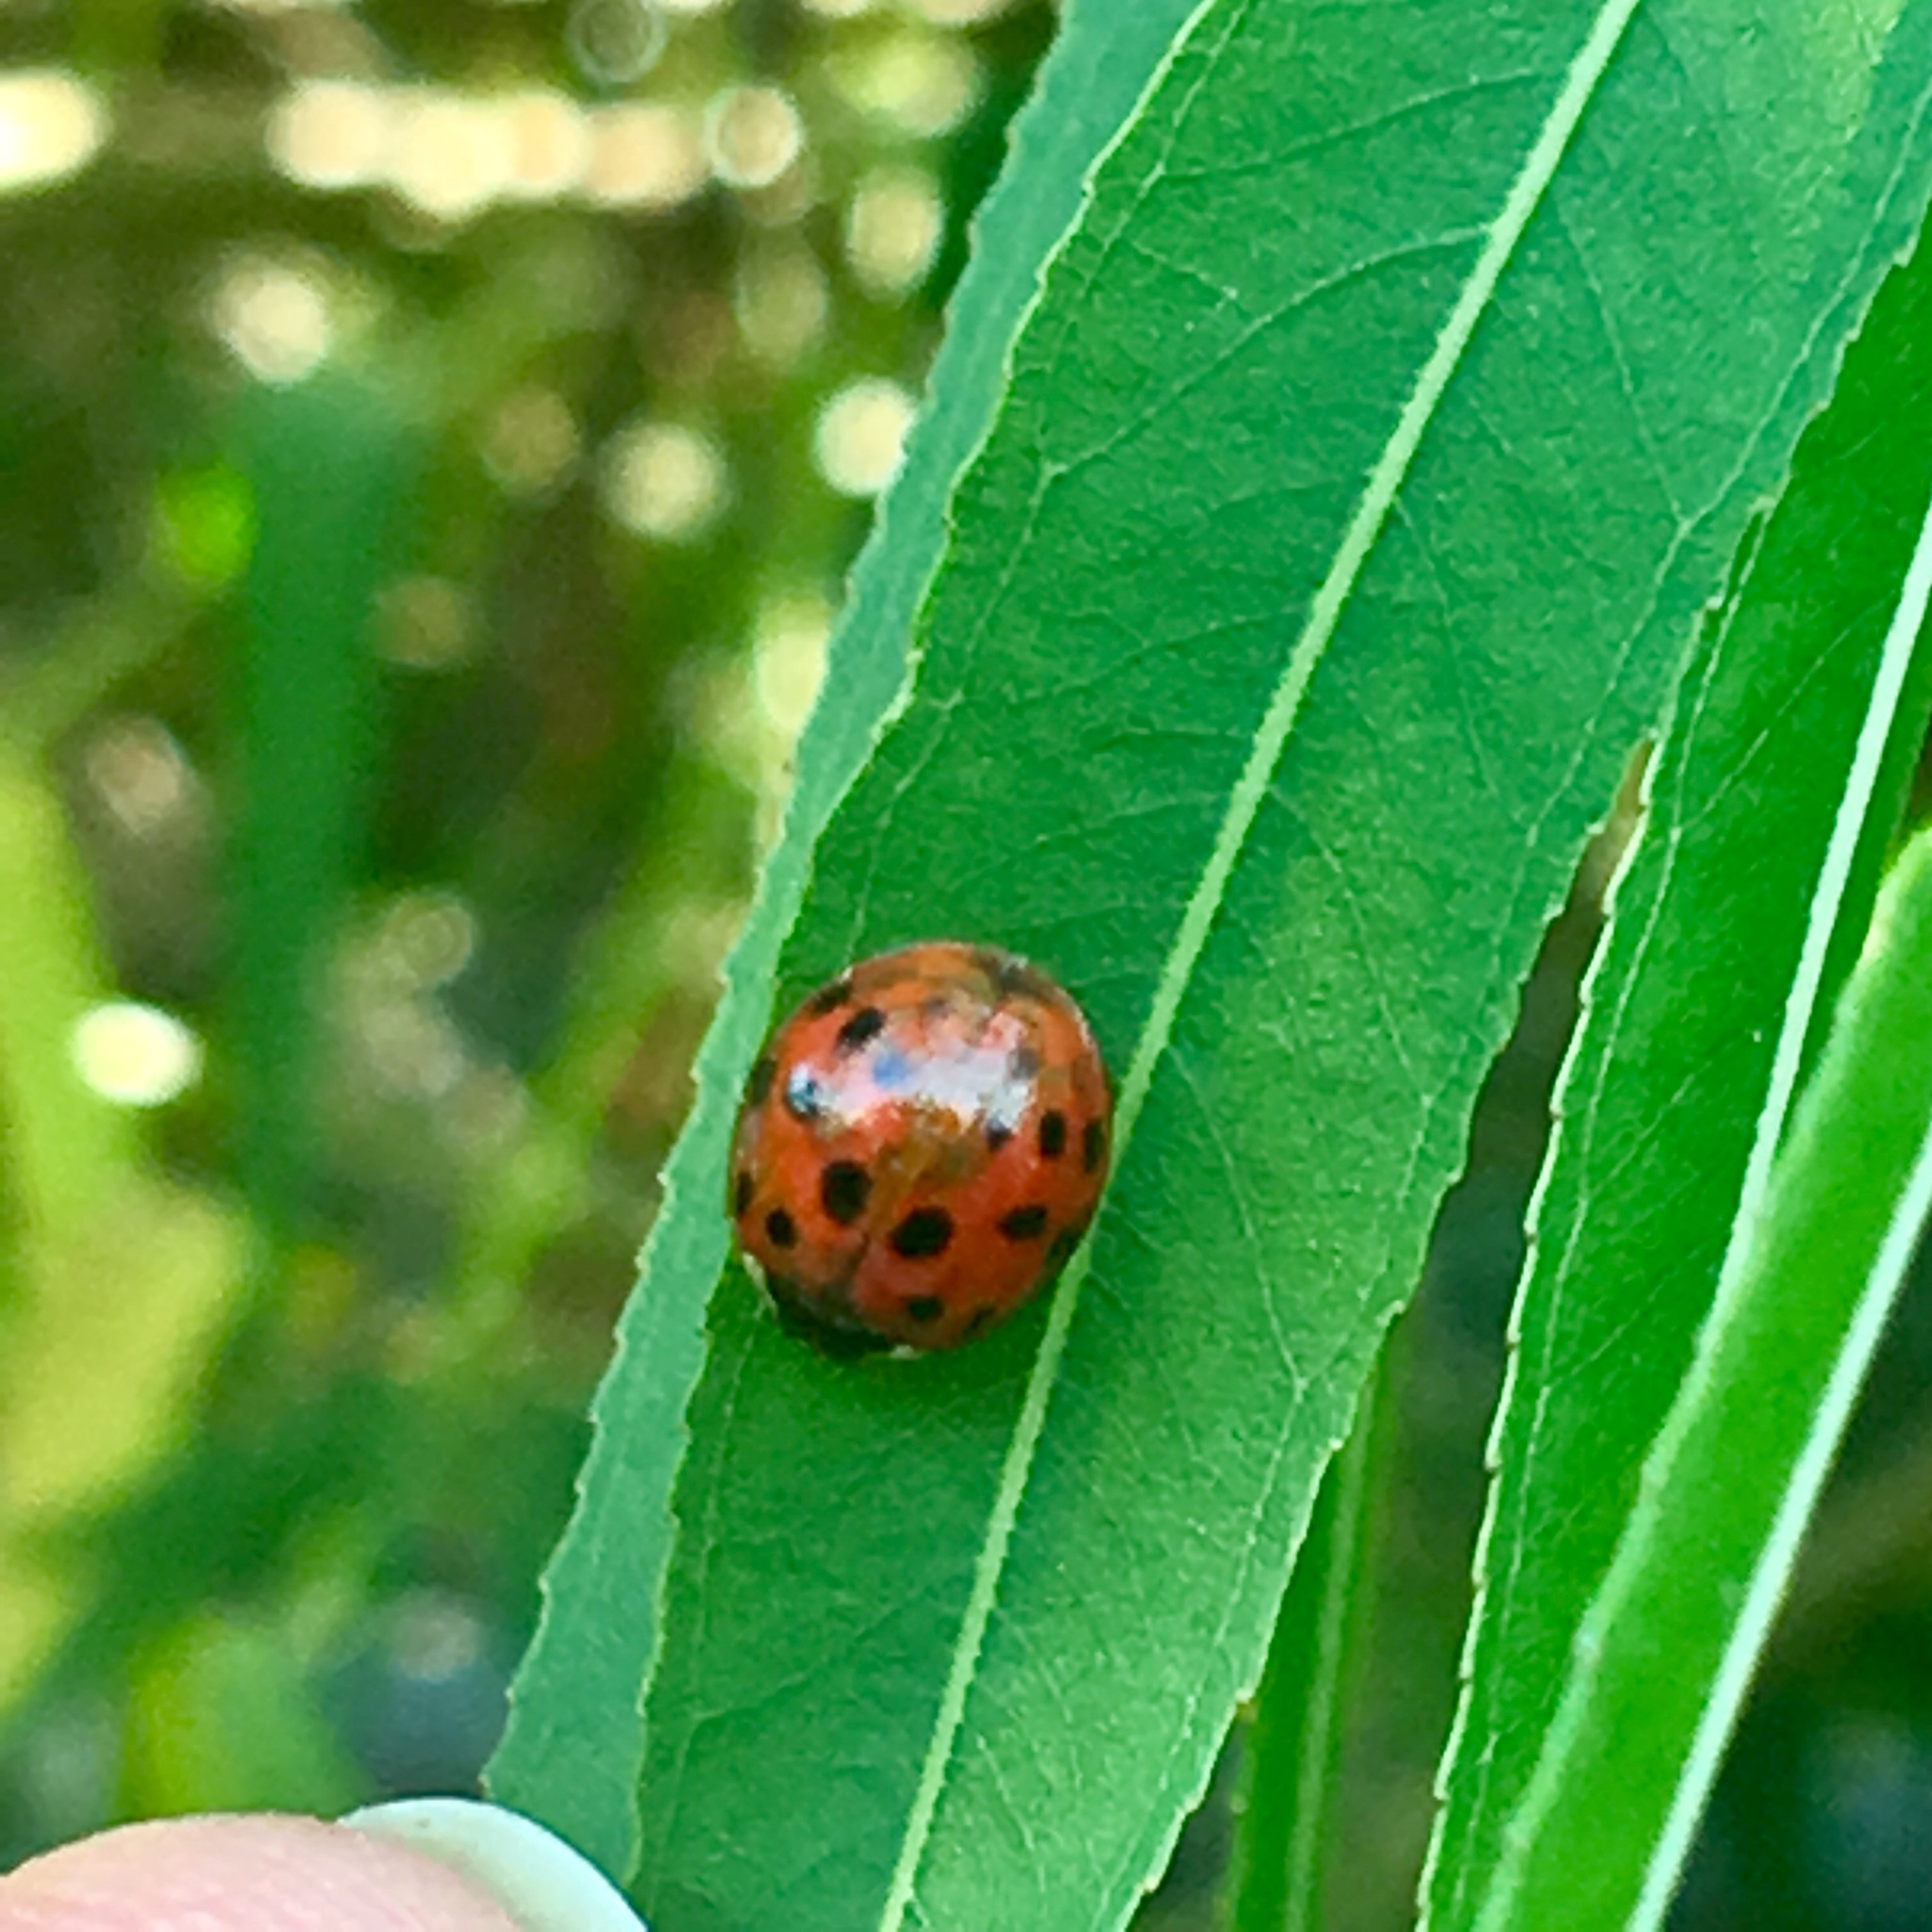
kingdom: Animalia
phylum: Arthropoda
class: Insecta
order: Coleoptera
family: Coccinellidae
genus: Harmonia
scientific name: Harmonia axyridis
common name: Harlequin ladybird
